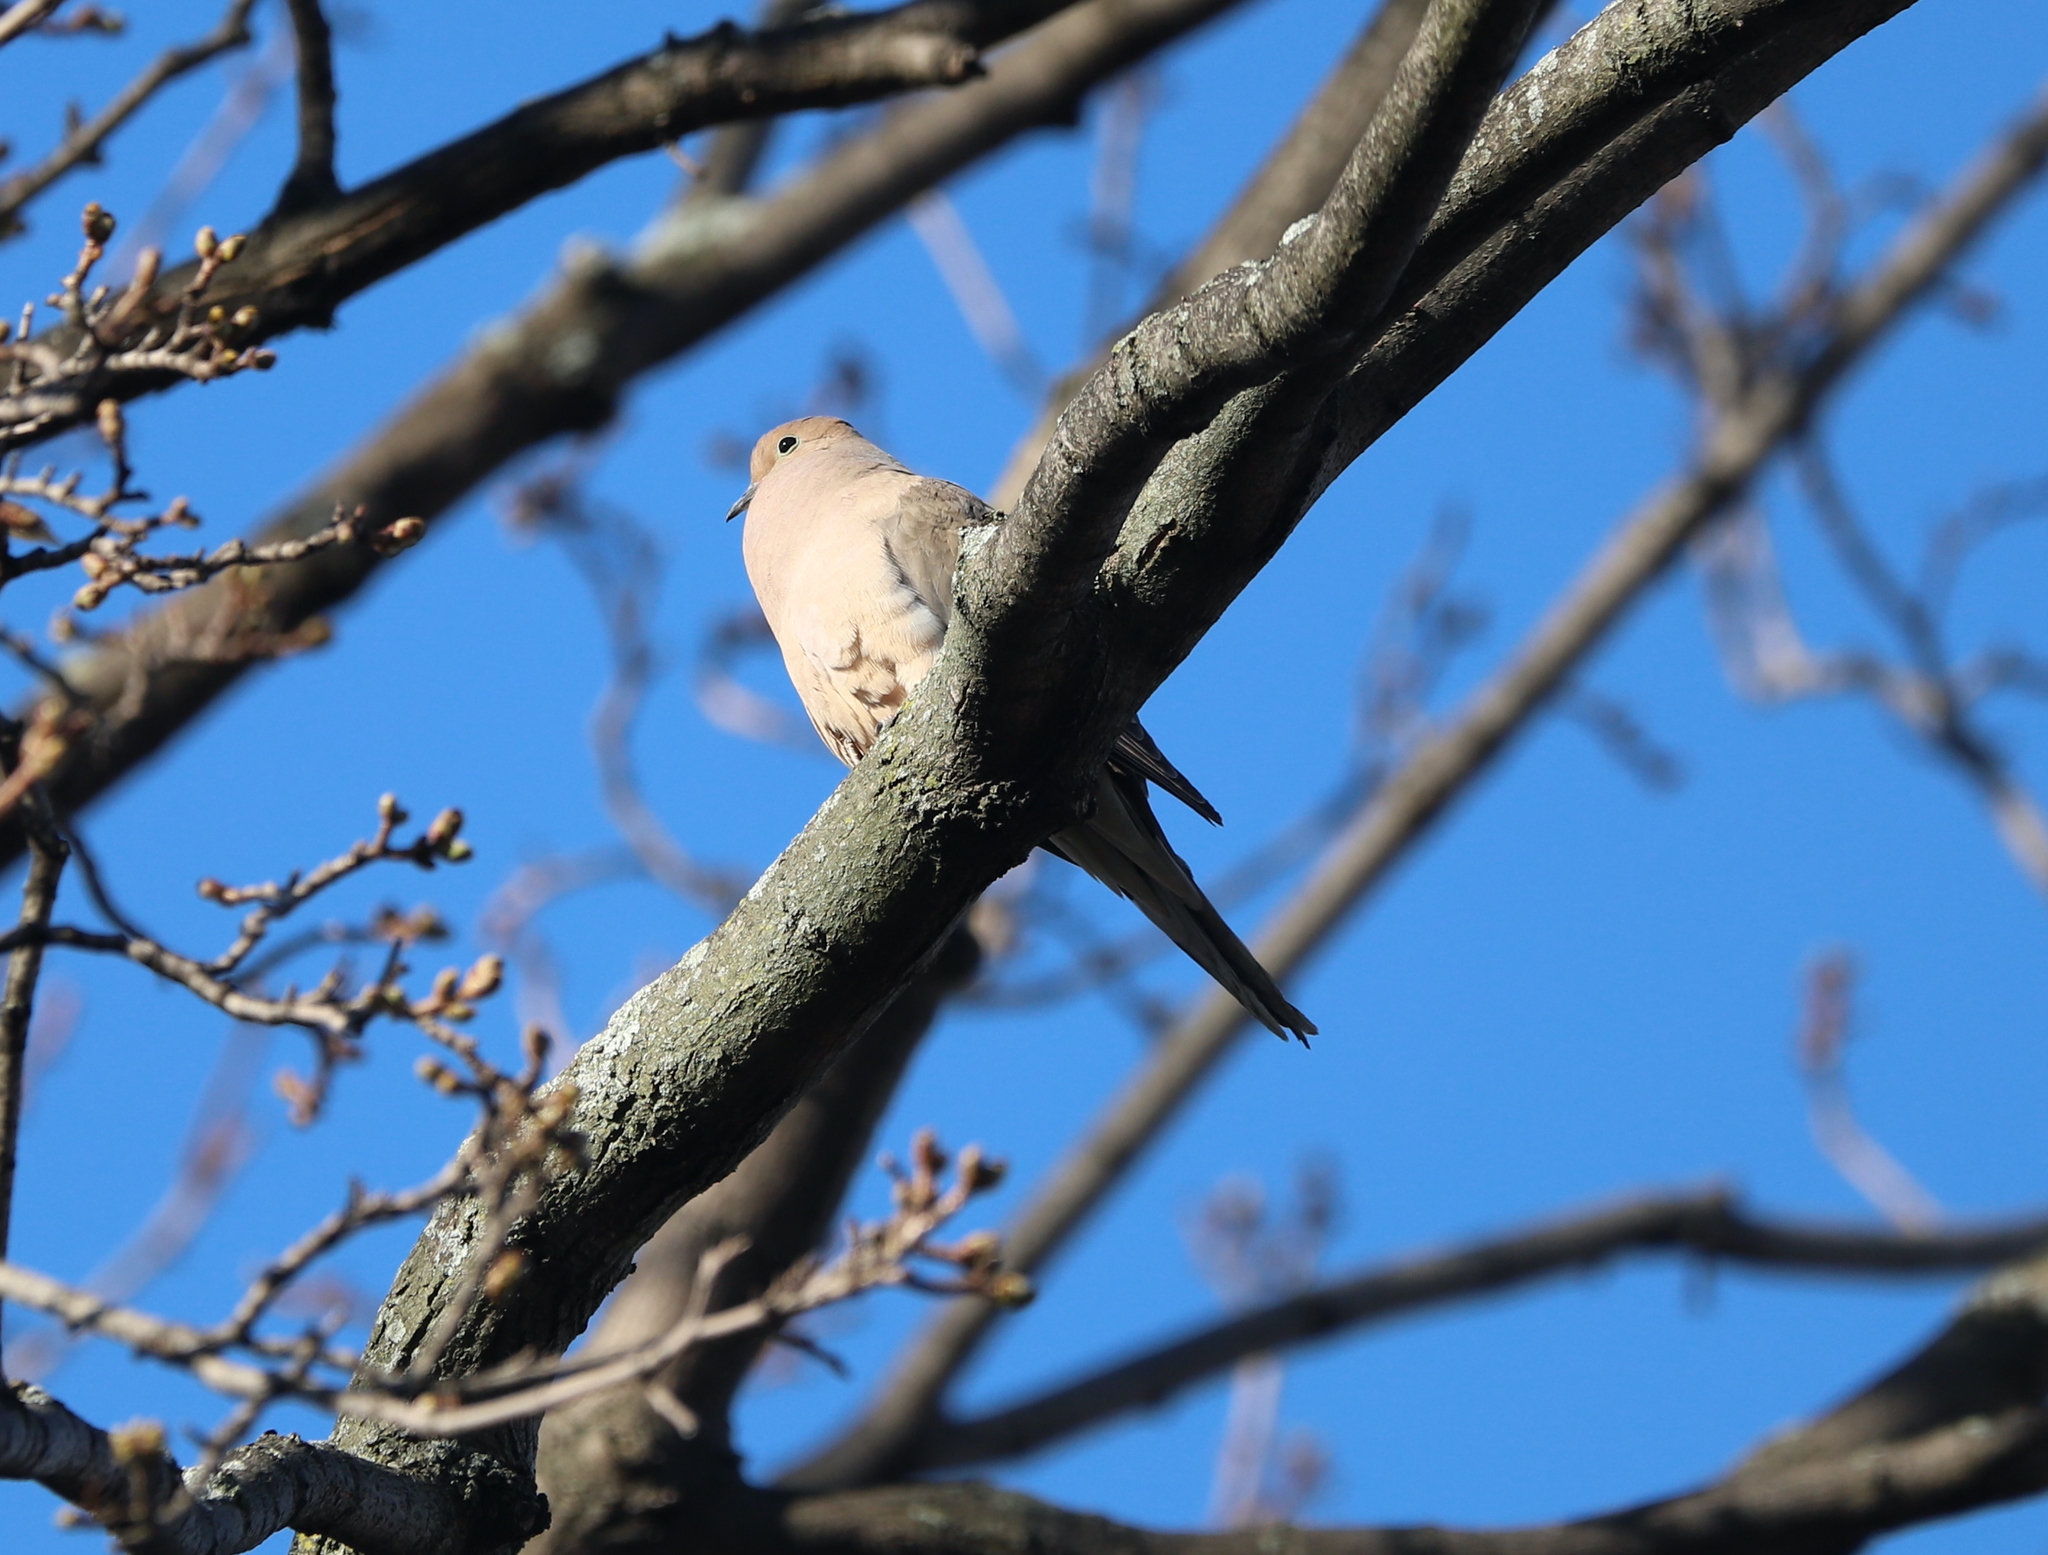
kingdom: Animalia
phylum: Chordata
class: Aves
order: Columbiformes
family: Columbidae
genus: Zenaida
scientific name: Zenaida macroura
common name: Mourning dove
